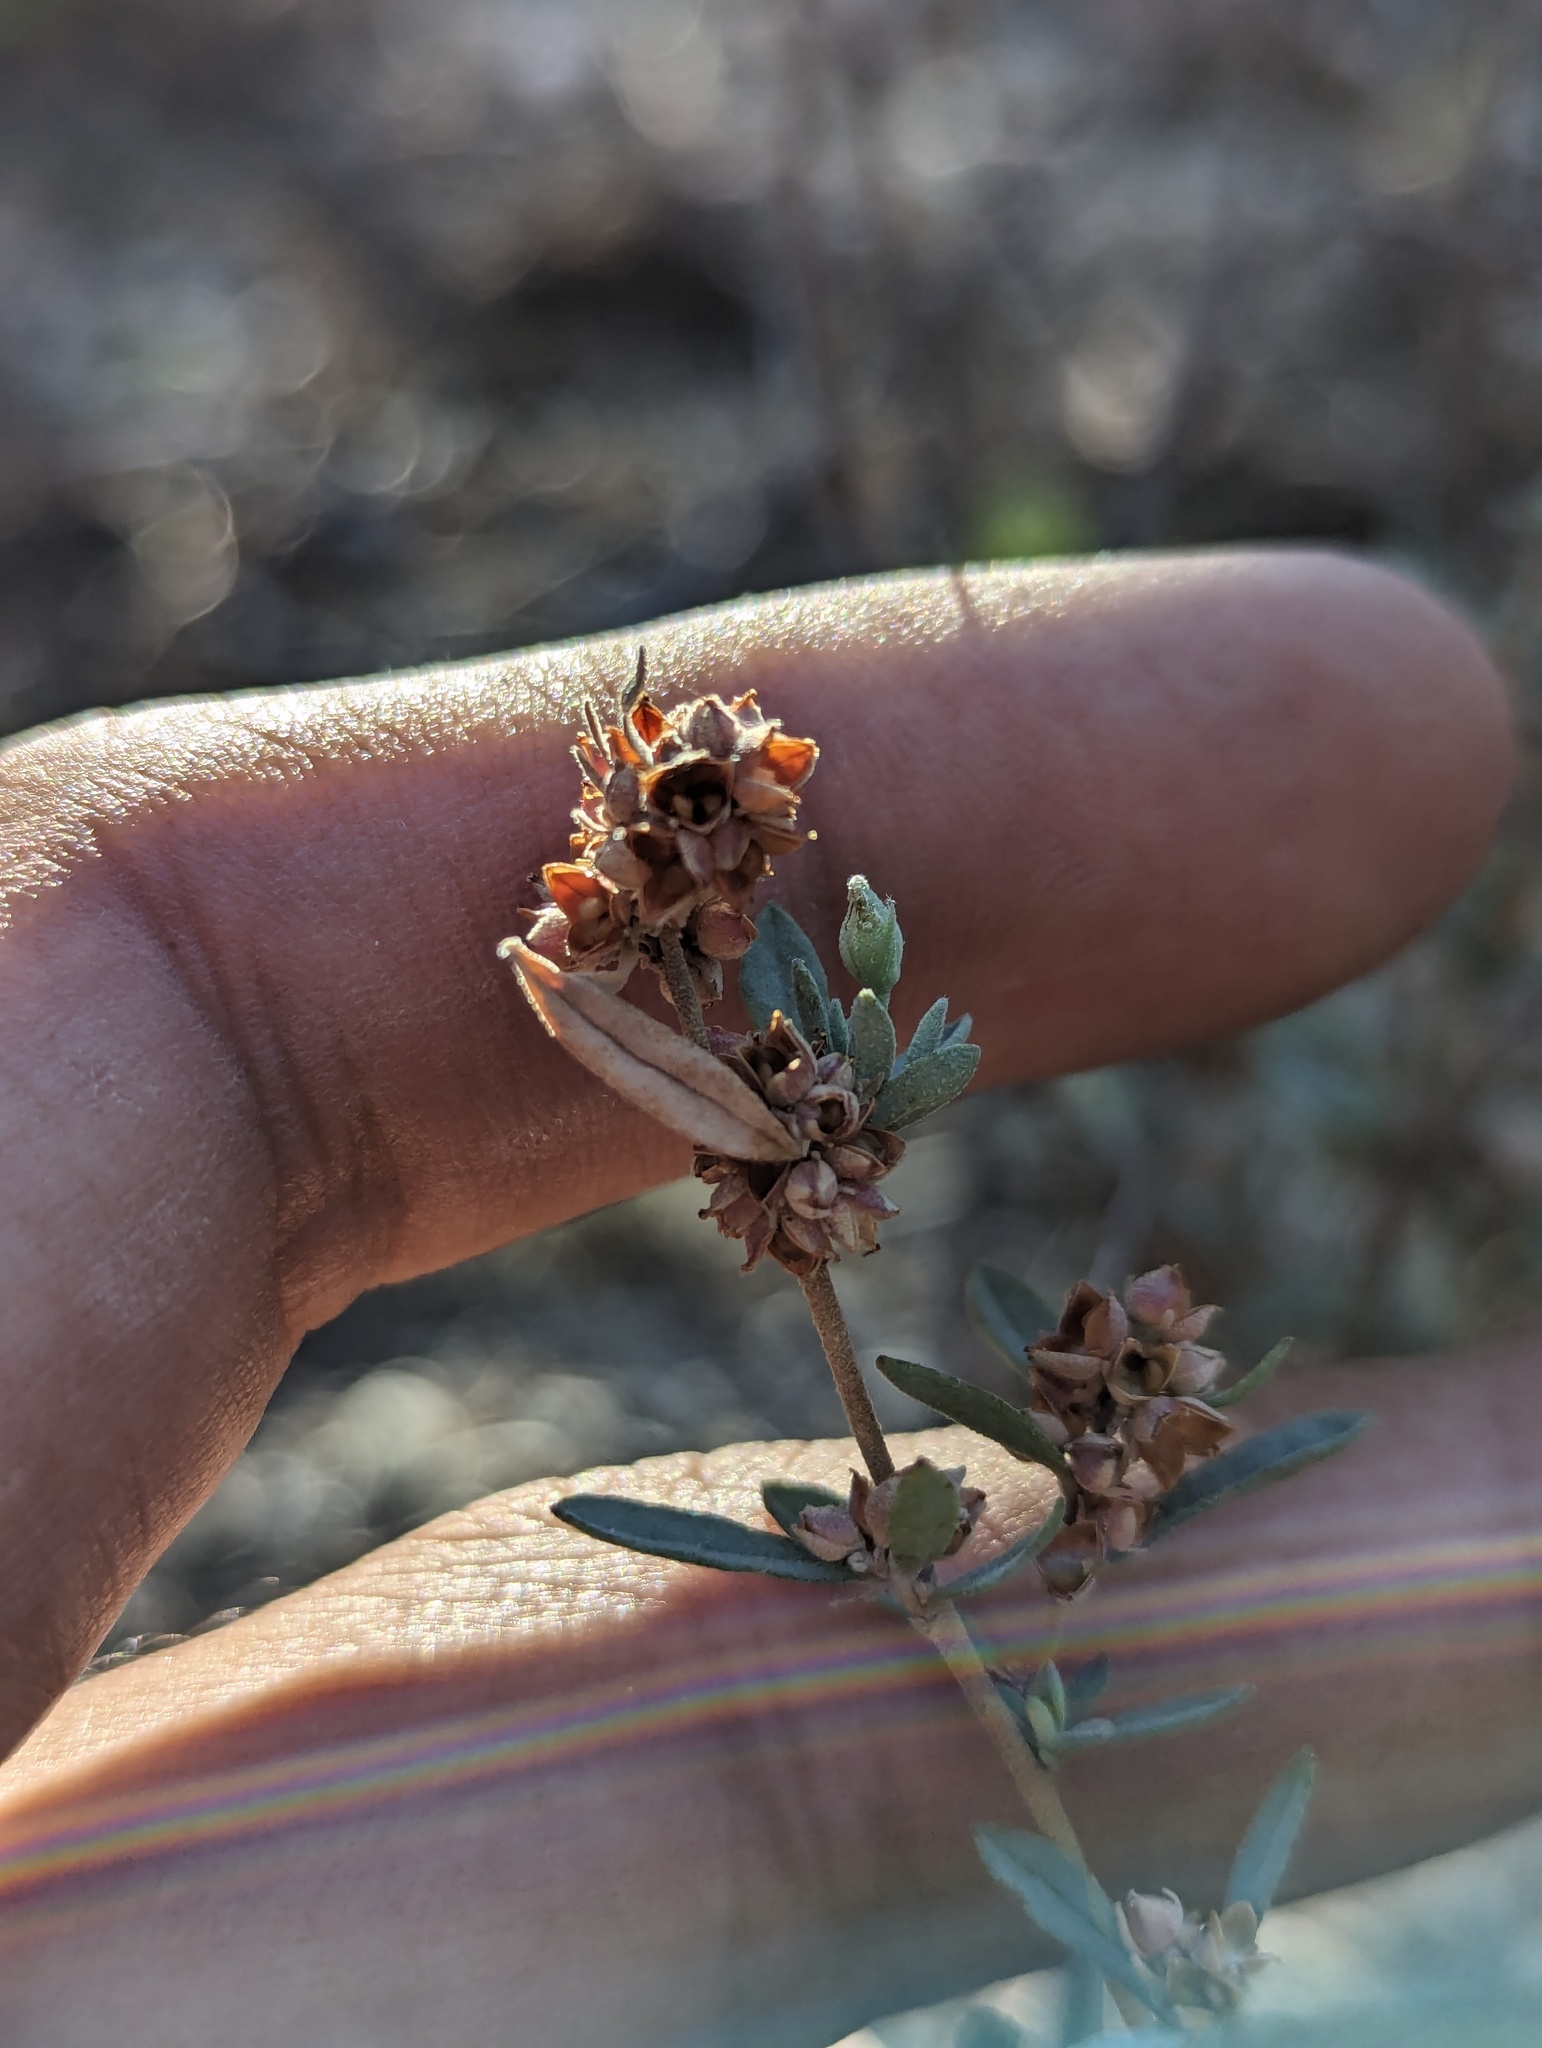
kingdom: Plantae
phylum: Tracheophyta
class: Magnoliopsida
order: Malvales
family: Cistaceae
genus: Crocanthemum
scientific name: Crocanthemum glomeratum
